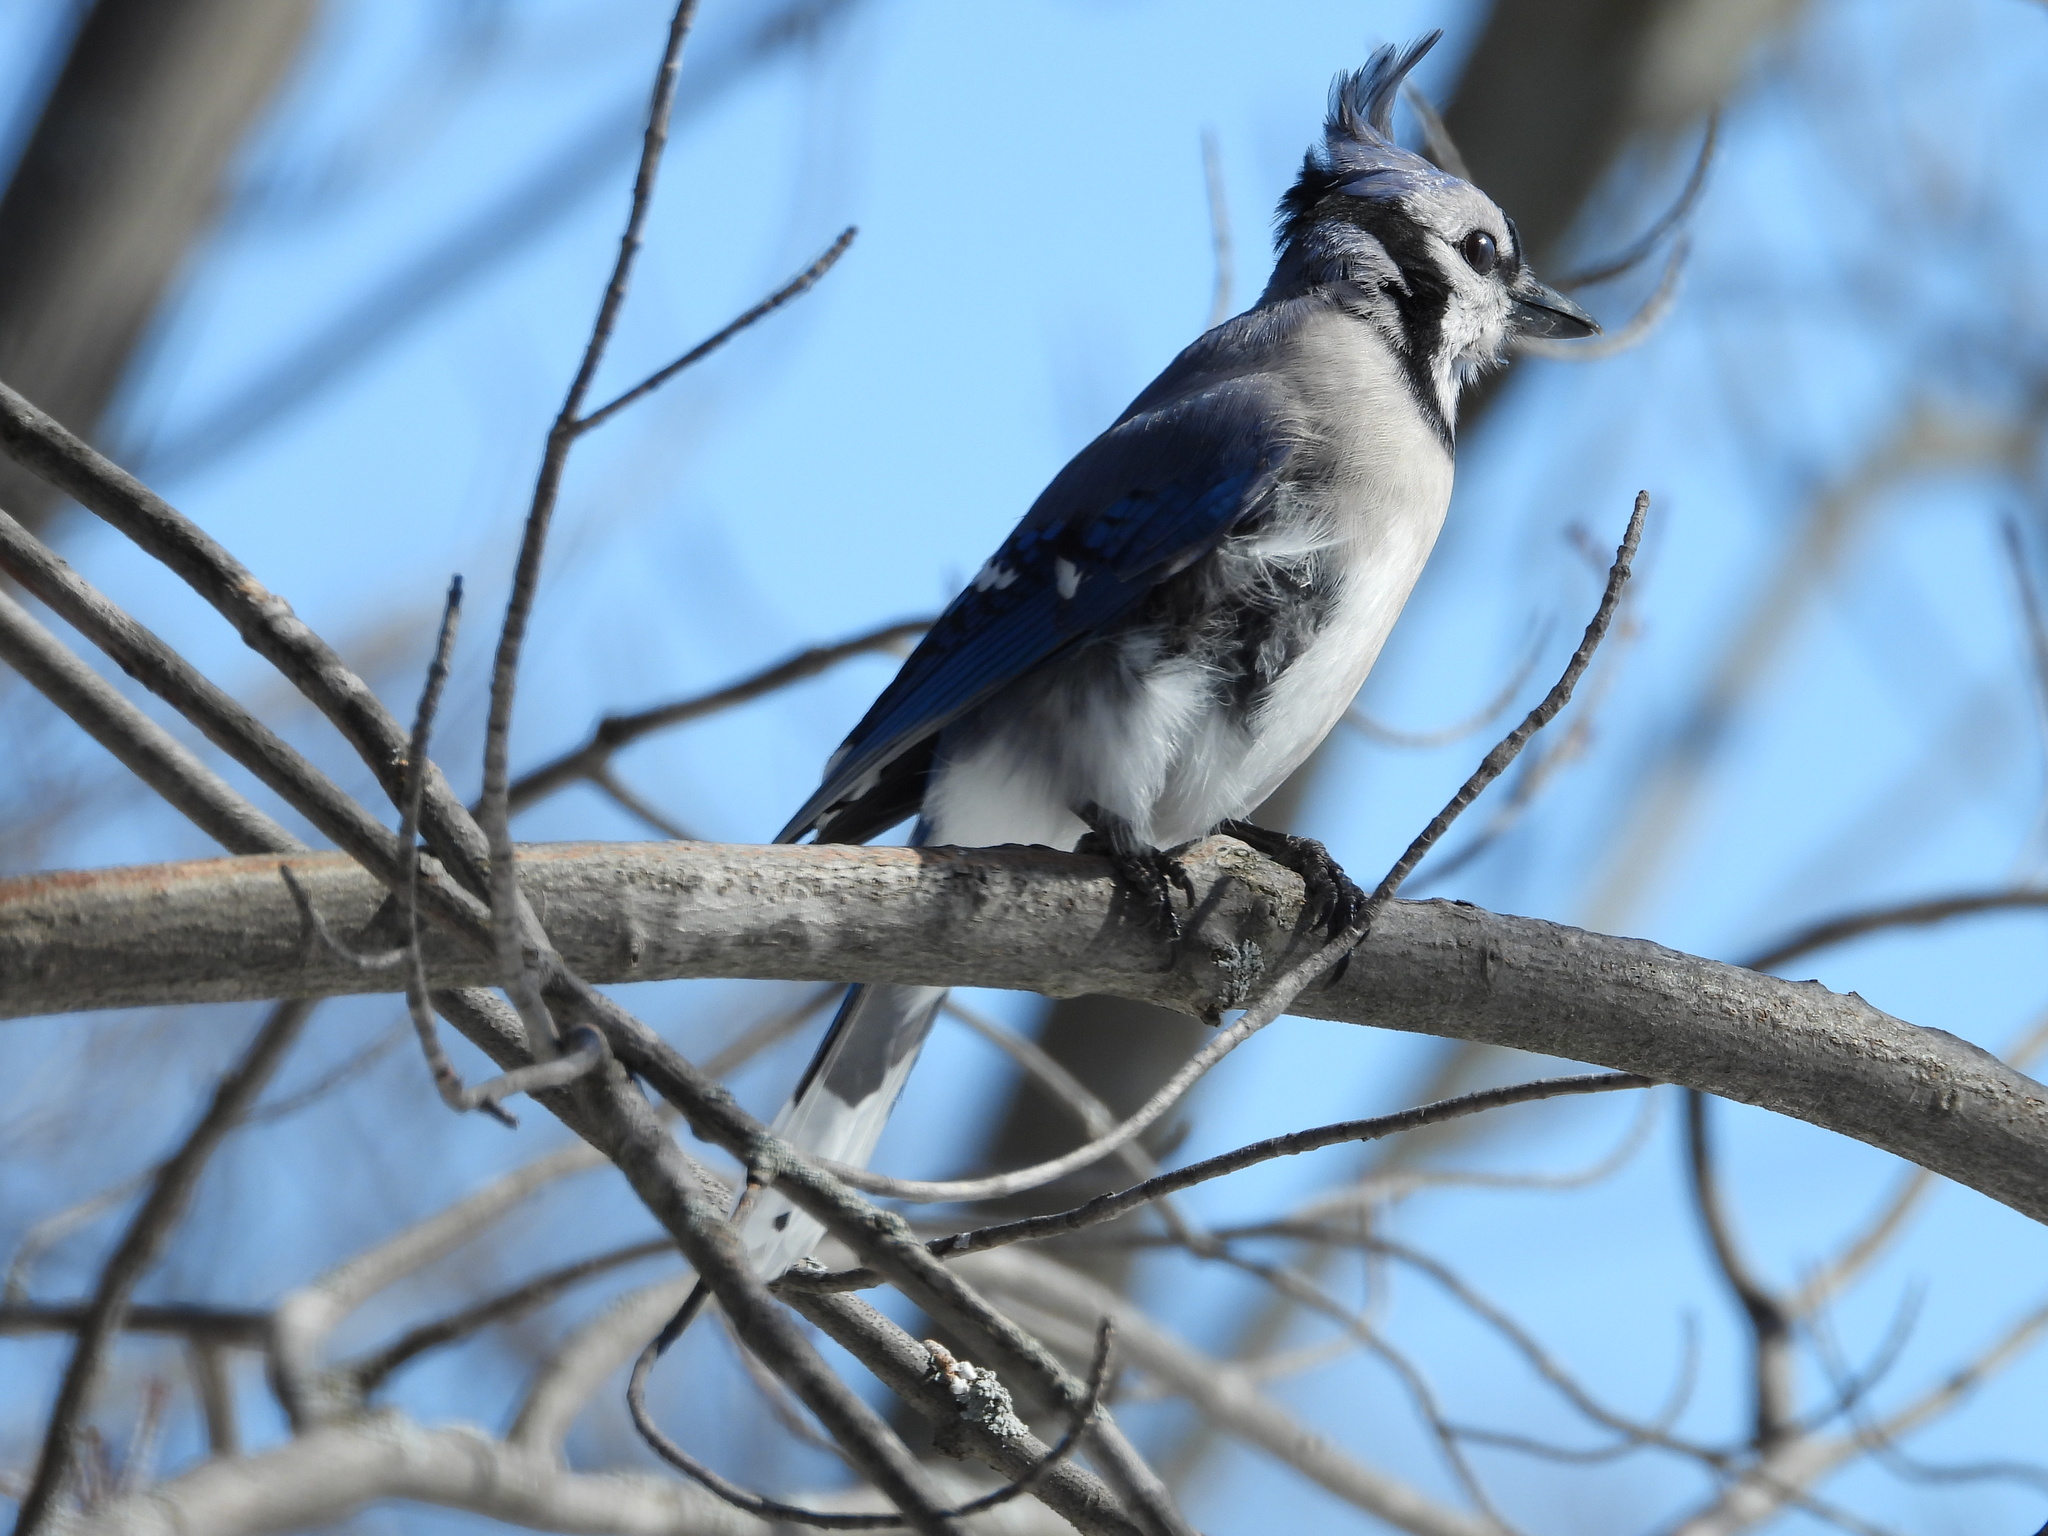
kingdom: Animalia
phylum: Chordata
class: Aves
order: Passeriformes
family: Corvidae
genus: Cyanocitta
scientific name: Cyanocitta cristata
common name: Blue jay
